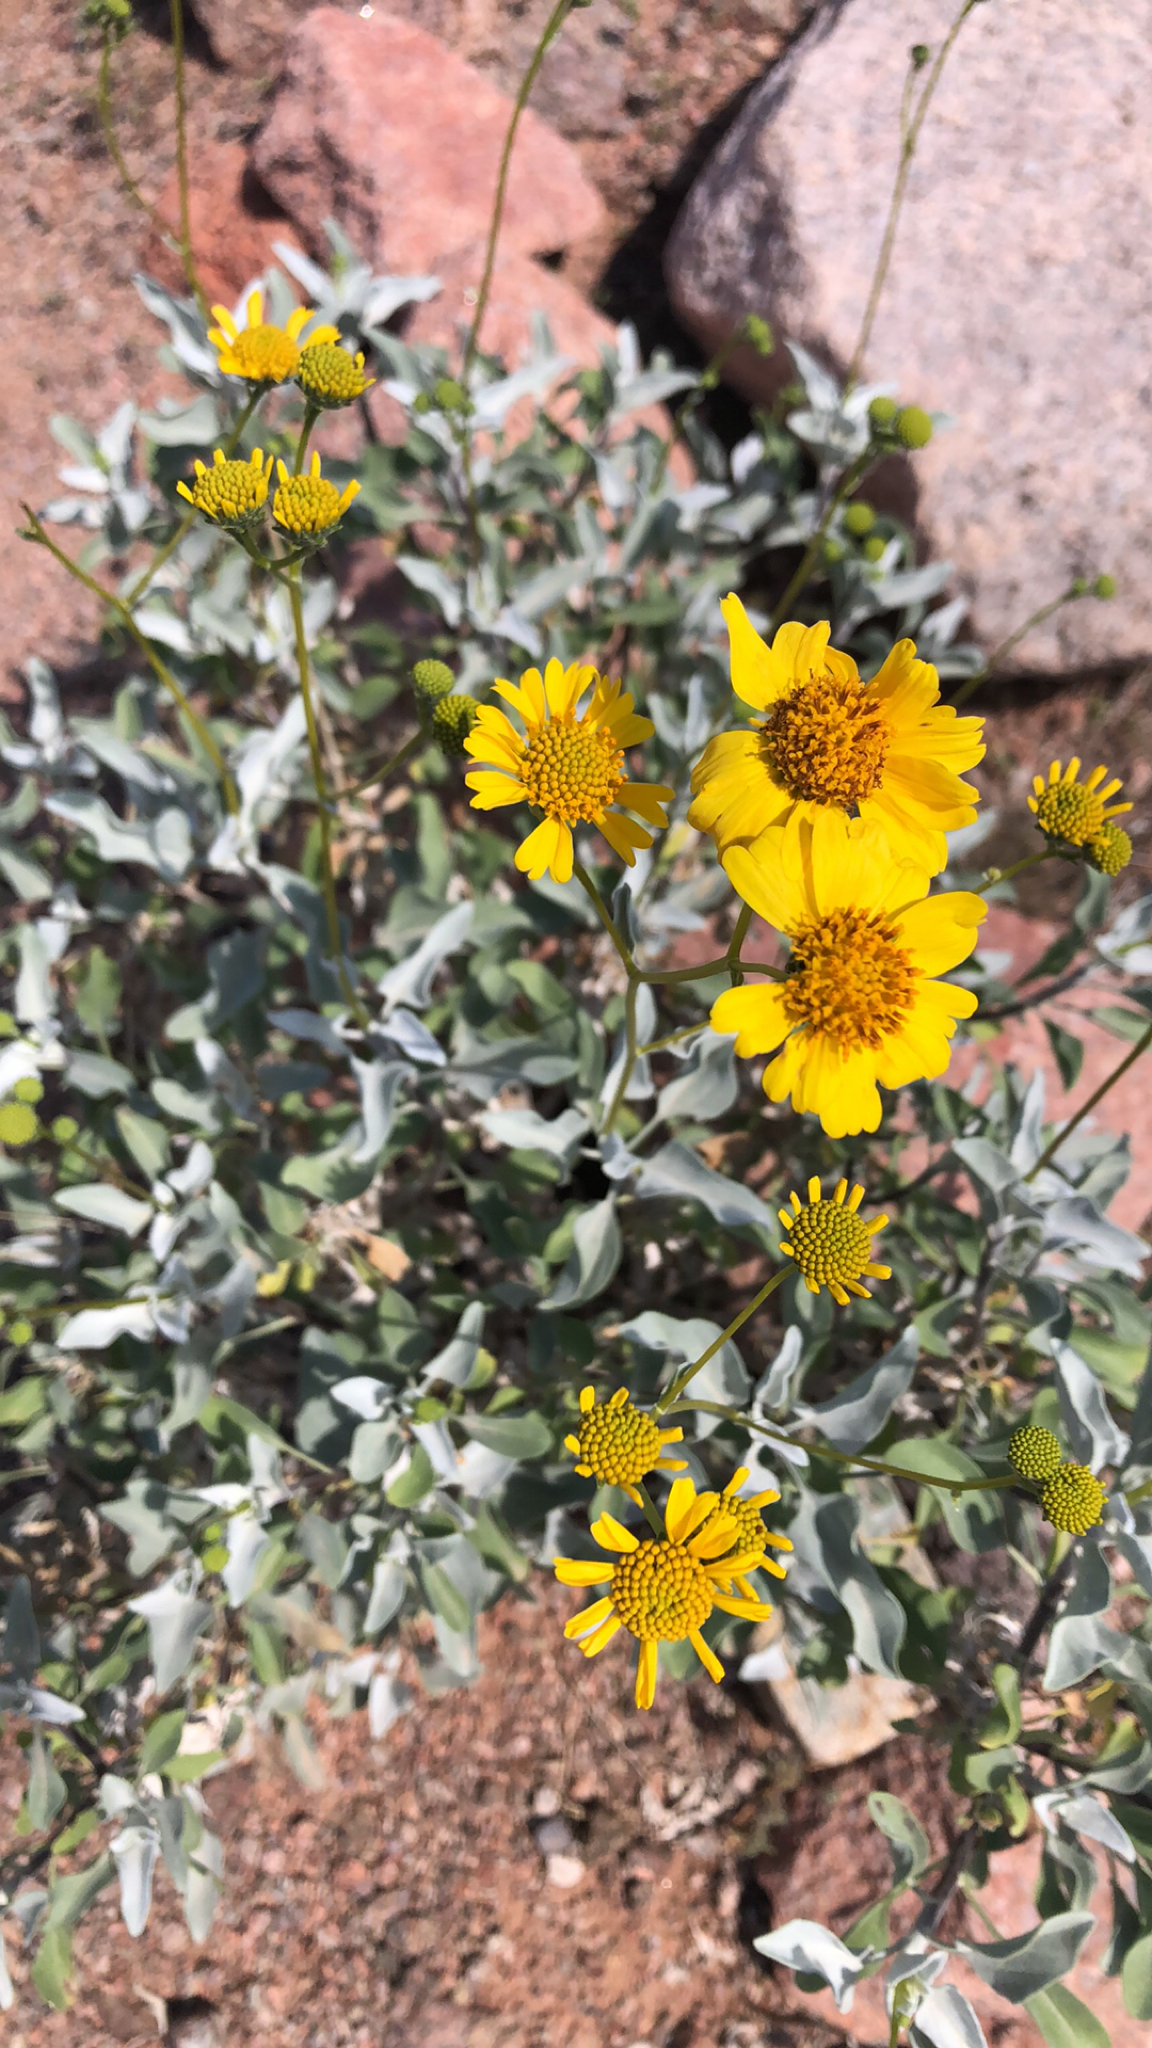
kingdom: Plantae
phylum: Tracheophyta
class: Magnoliopsida
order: Asterales
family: Asteraceae
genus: Encelia
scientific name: Encelia farinosa
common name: Brittlebush
